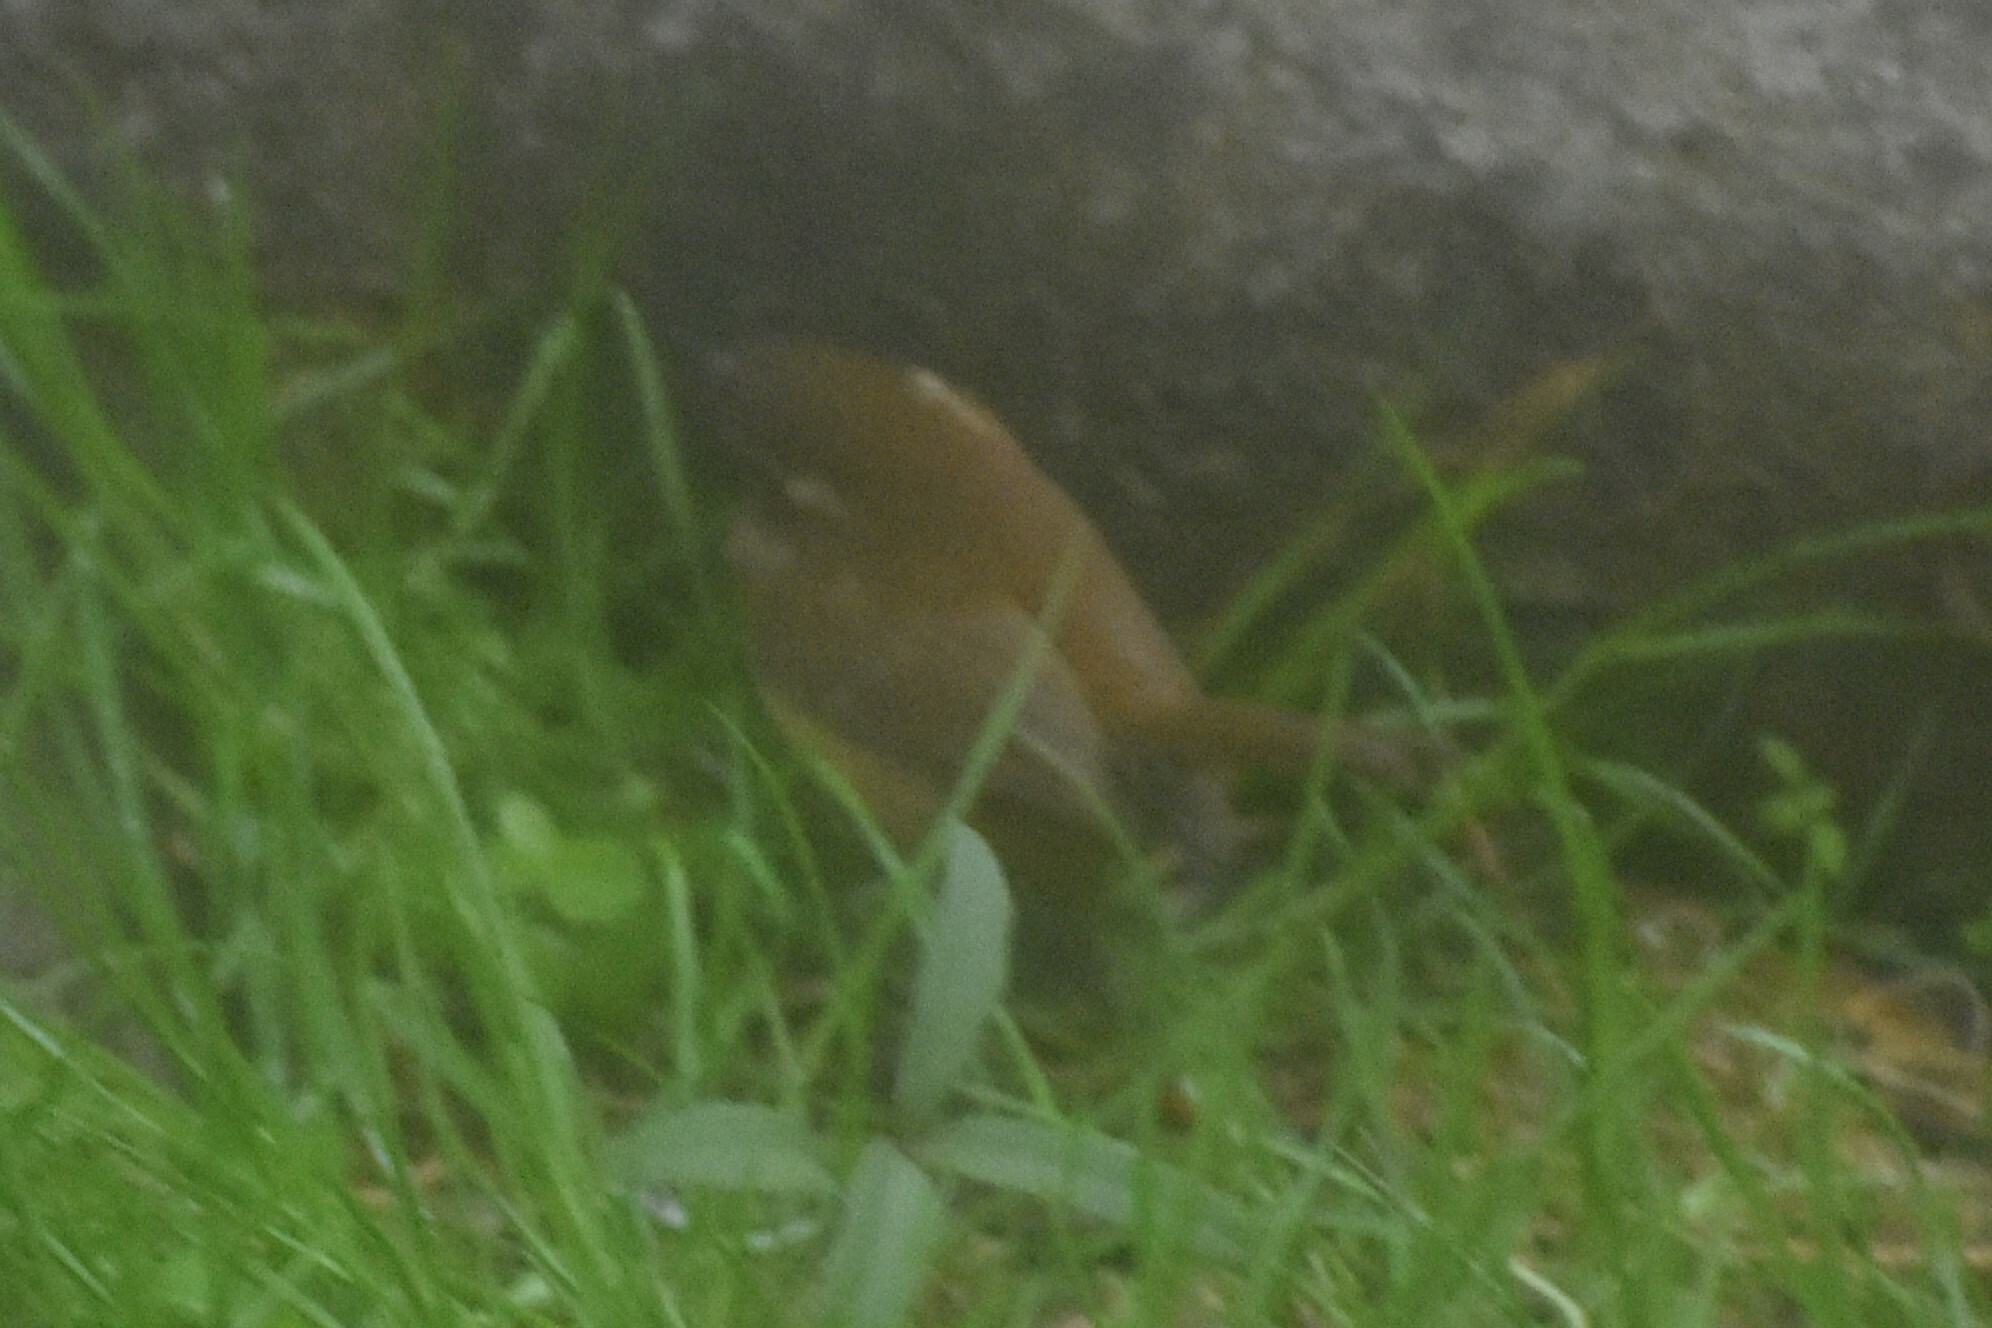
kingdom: Animalia
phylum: Chordata
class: Aves
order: Passeriformes
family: Troglodytidae
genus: Thryothorus
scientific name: Thryothorus ludovicianus
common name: Carolina wren
